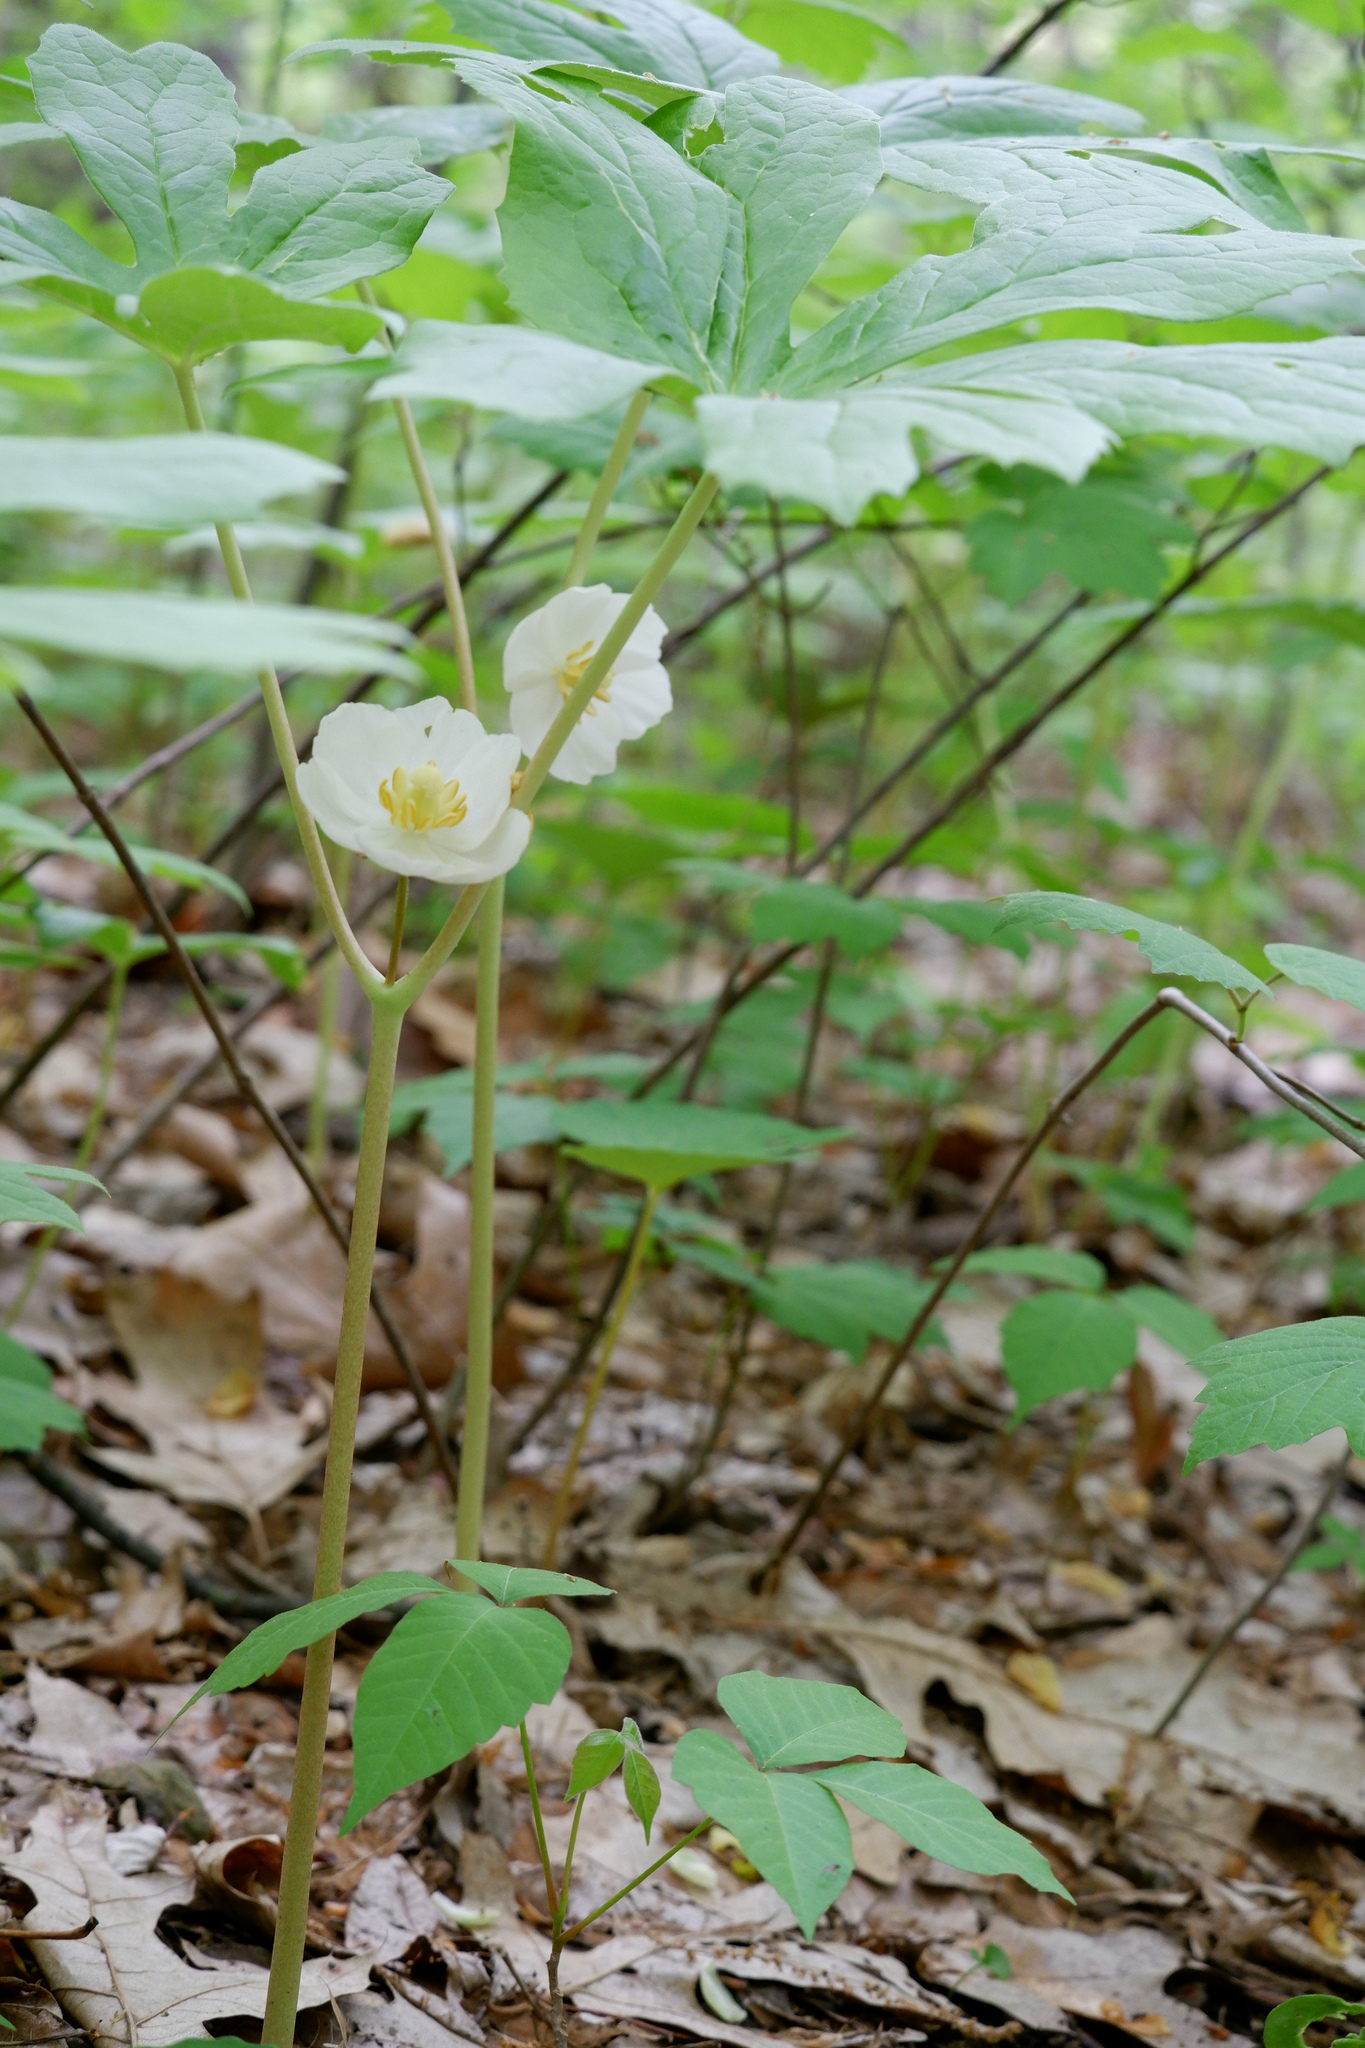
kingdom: Plantae
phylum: Tracheophyta
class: Magnoliopsida
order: Ranunculales
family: Berberidaceae
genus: Podophyllum
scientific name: Podophyllum peltatum
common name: Wild mandrake
